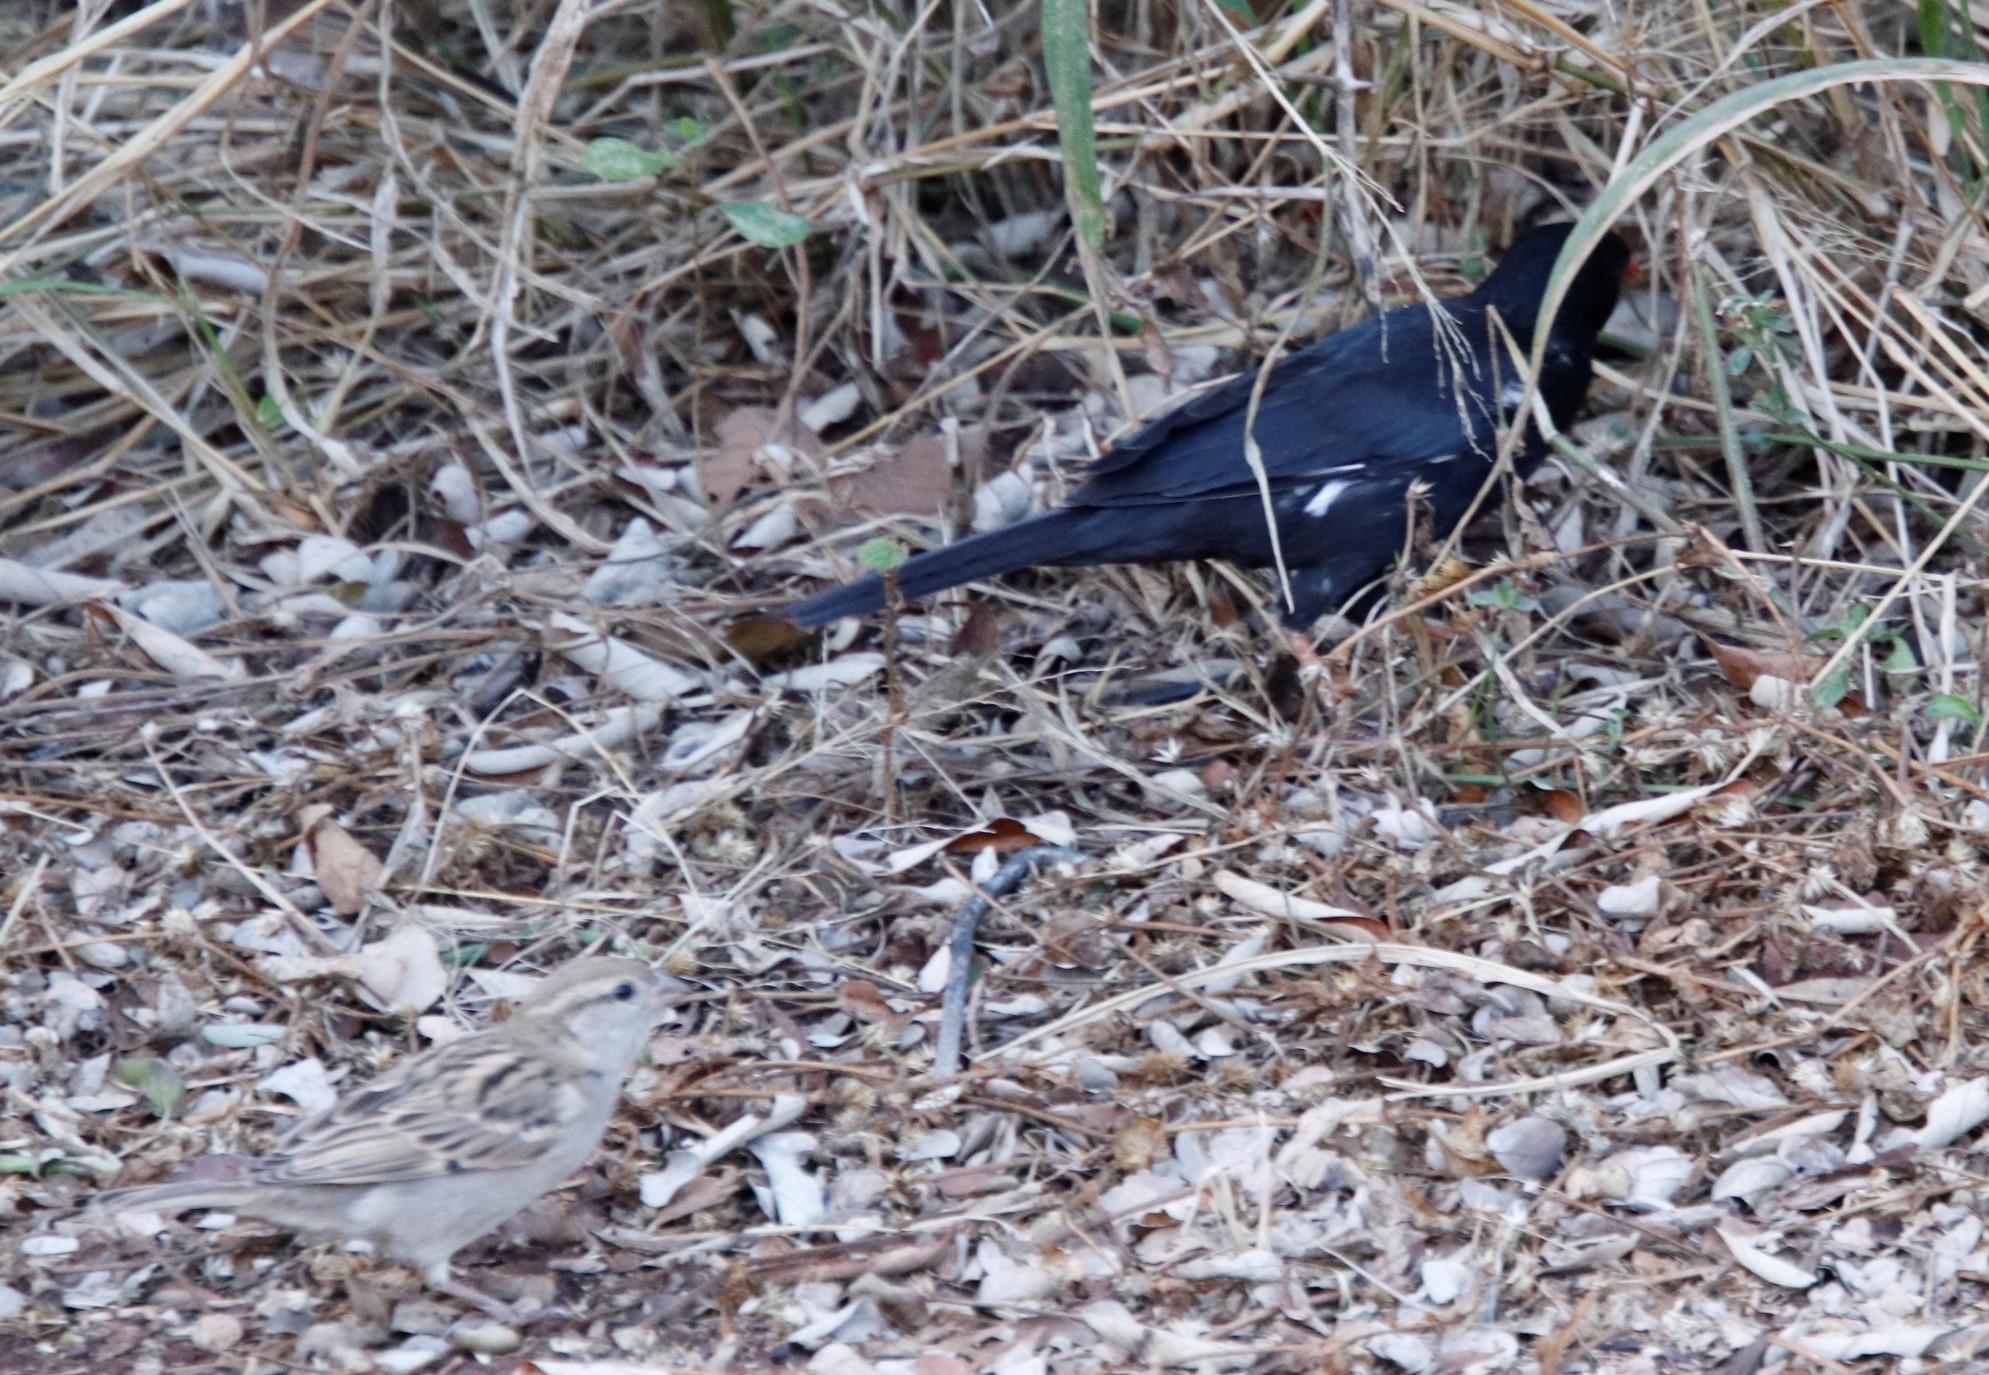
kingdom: Animalia
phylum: Chordata
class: Aves
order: Passeriformes
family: Passeridae
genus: Passer
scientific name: Passer domesticus
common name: House sparrow
